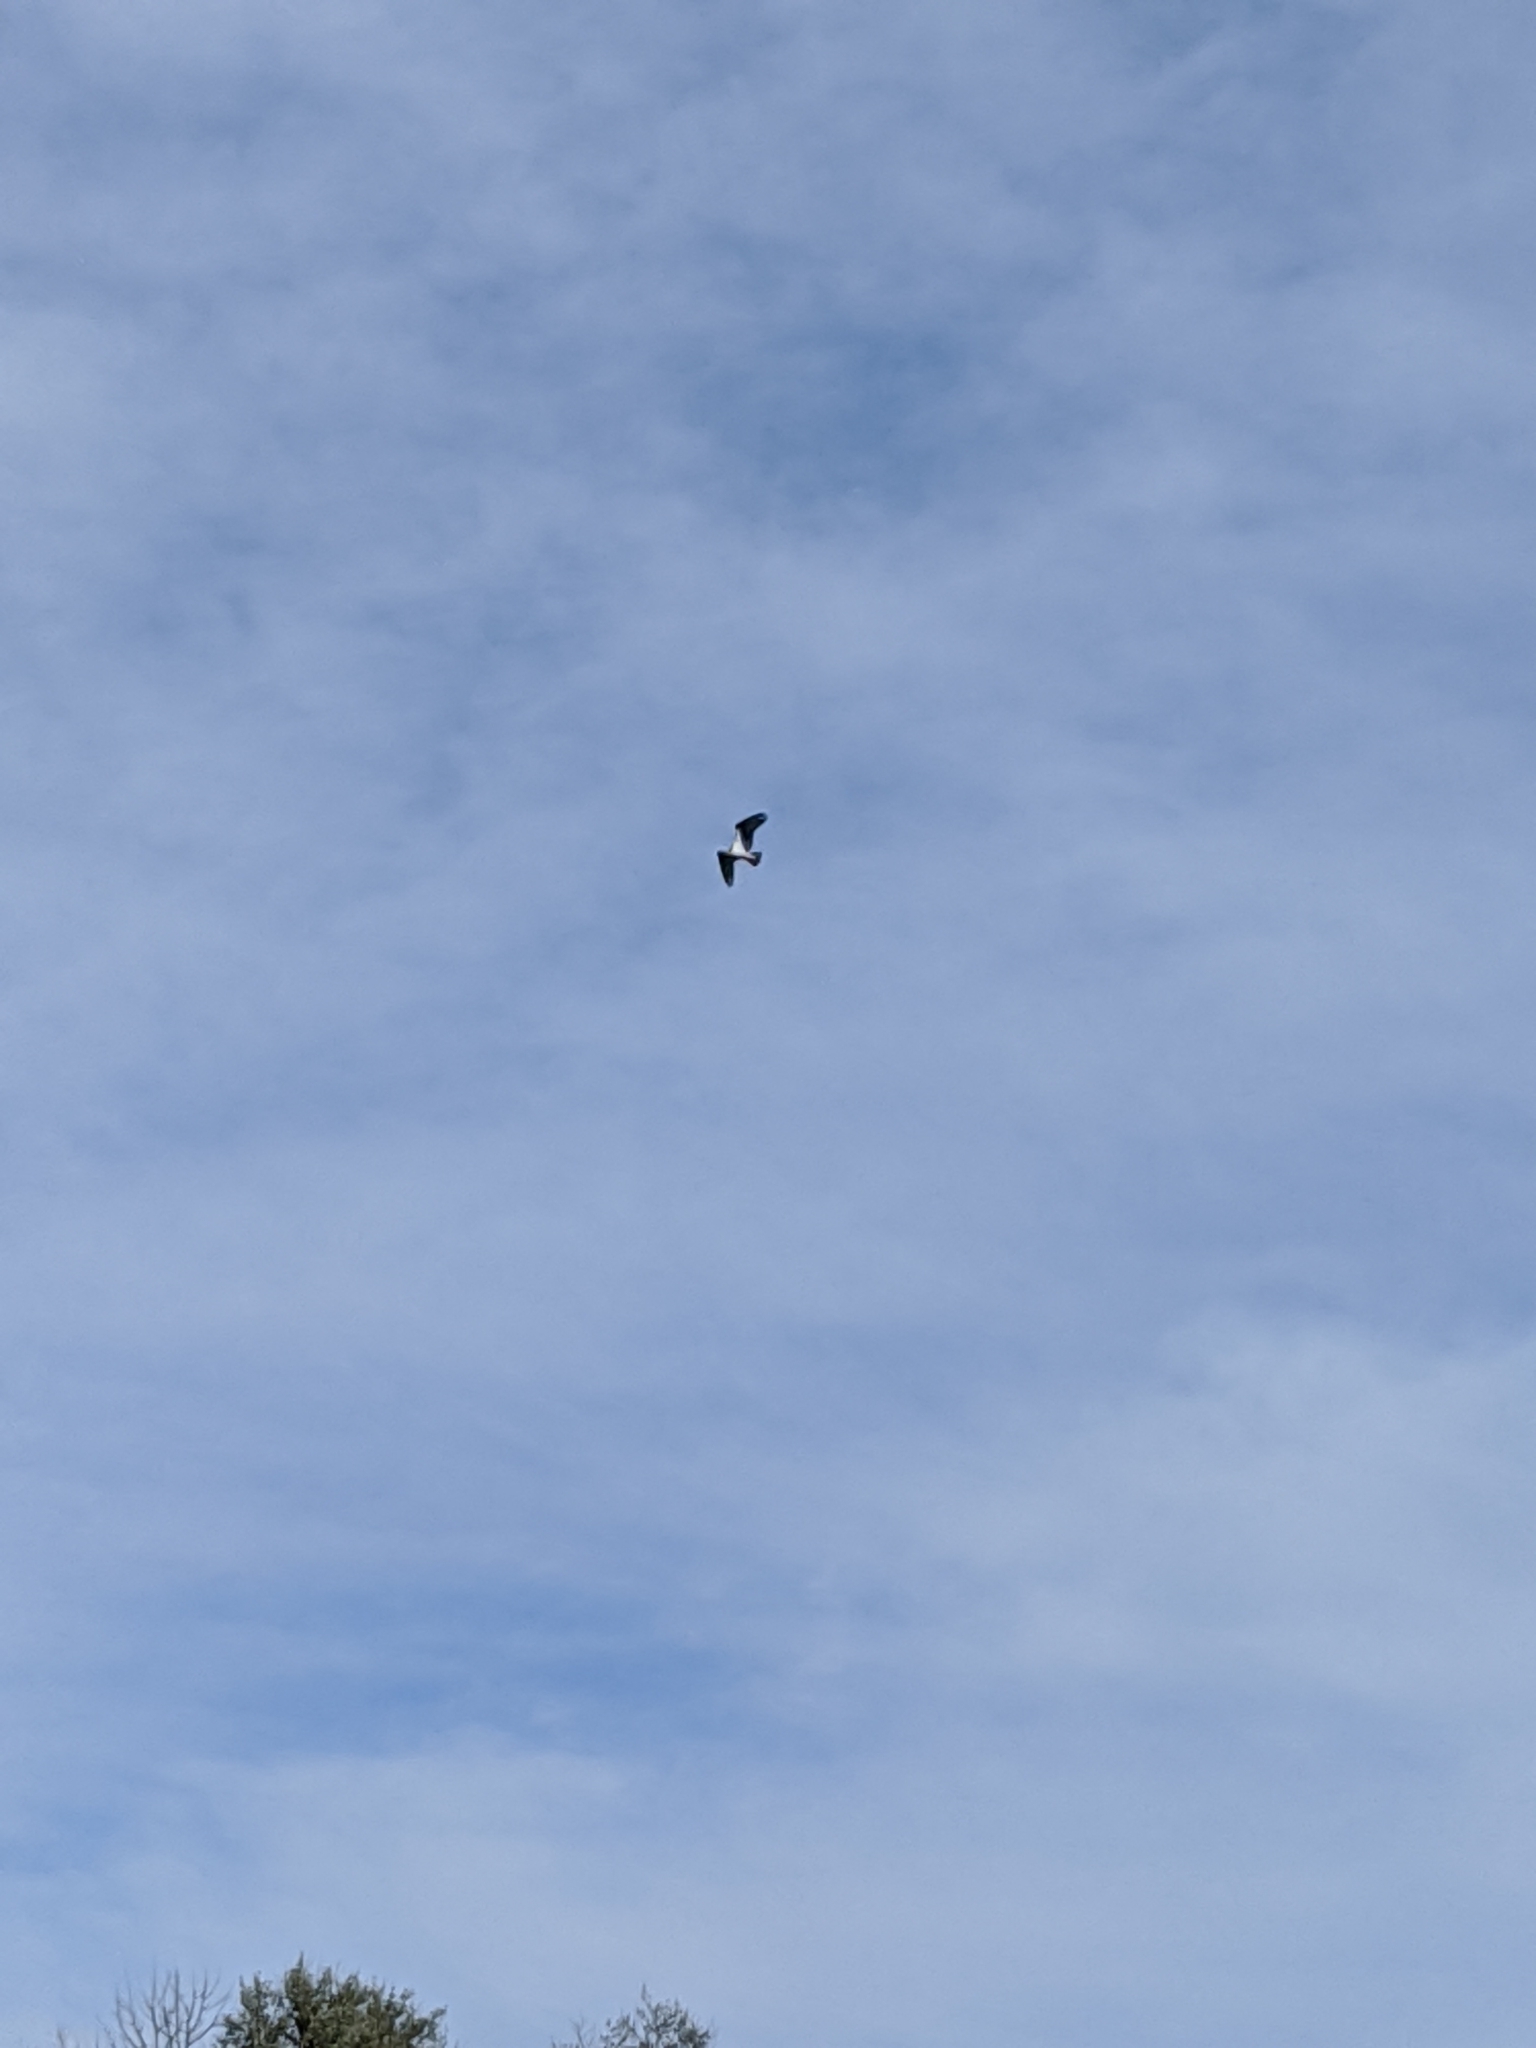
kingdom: Animalia
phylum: Chordata
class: Aves
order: Accipitriformes
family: Pandionidae
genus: Pandion
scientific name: Pandion haliaetus
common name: Osprey
